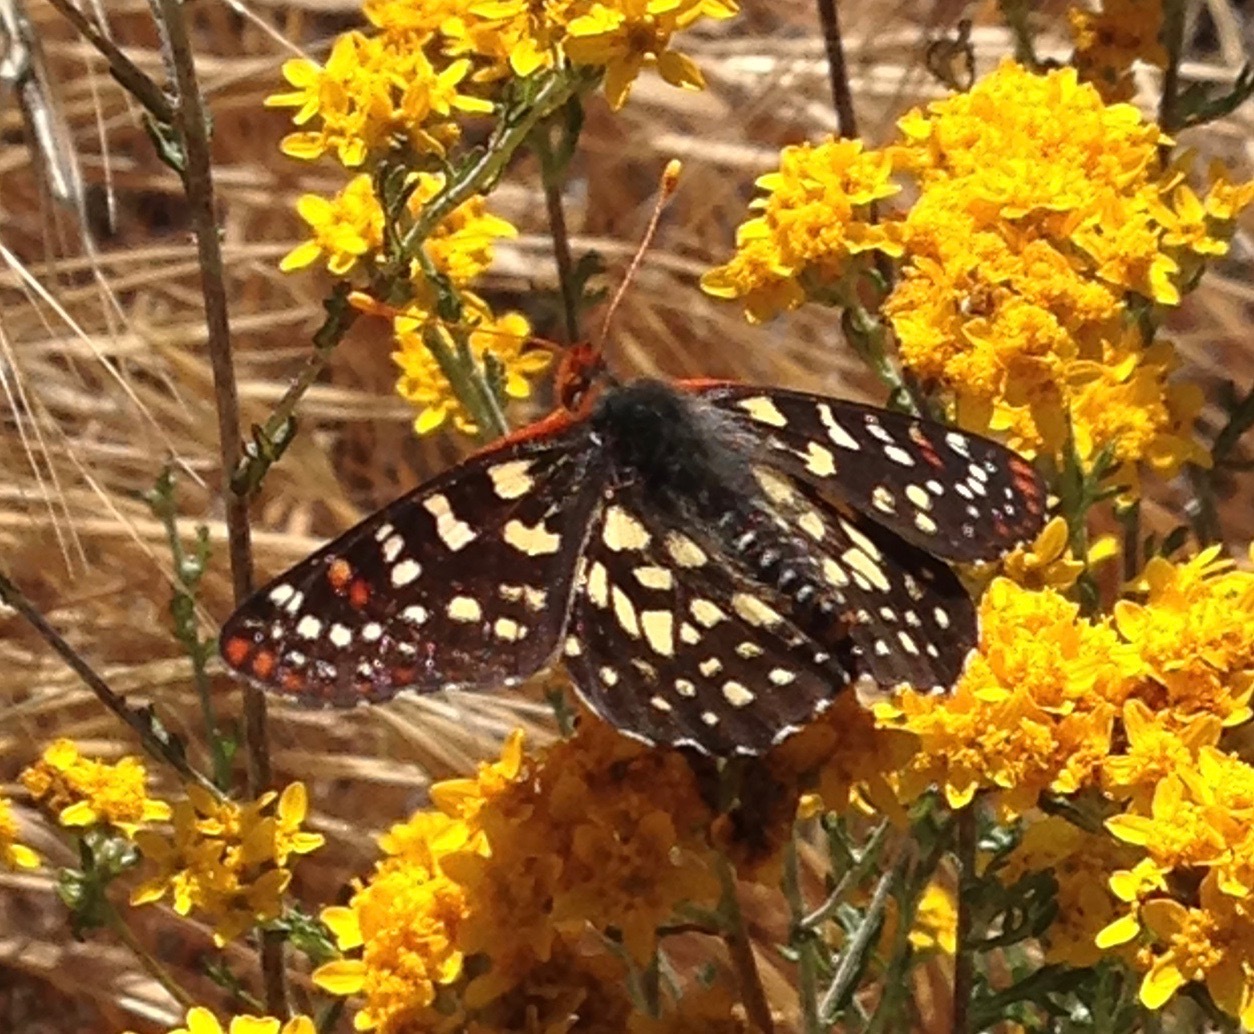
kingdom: Animalia
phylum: Arthropoda
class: Insecta
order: Lepidoptera
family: Nymphalidae
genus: Occidryas
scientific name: Occidryas chalcedona
